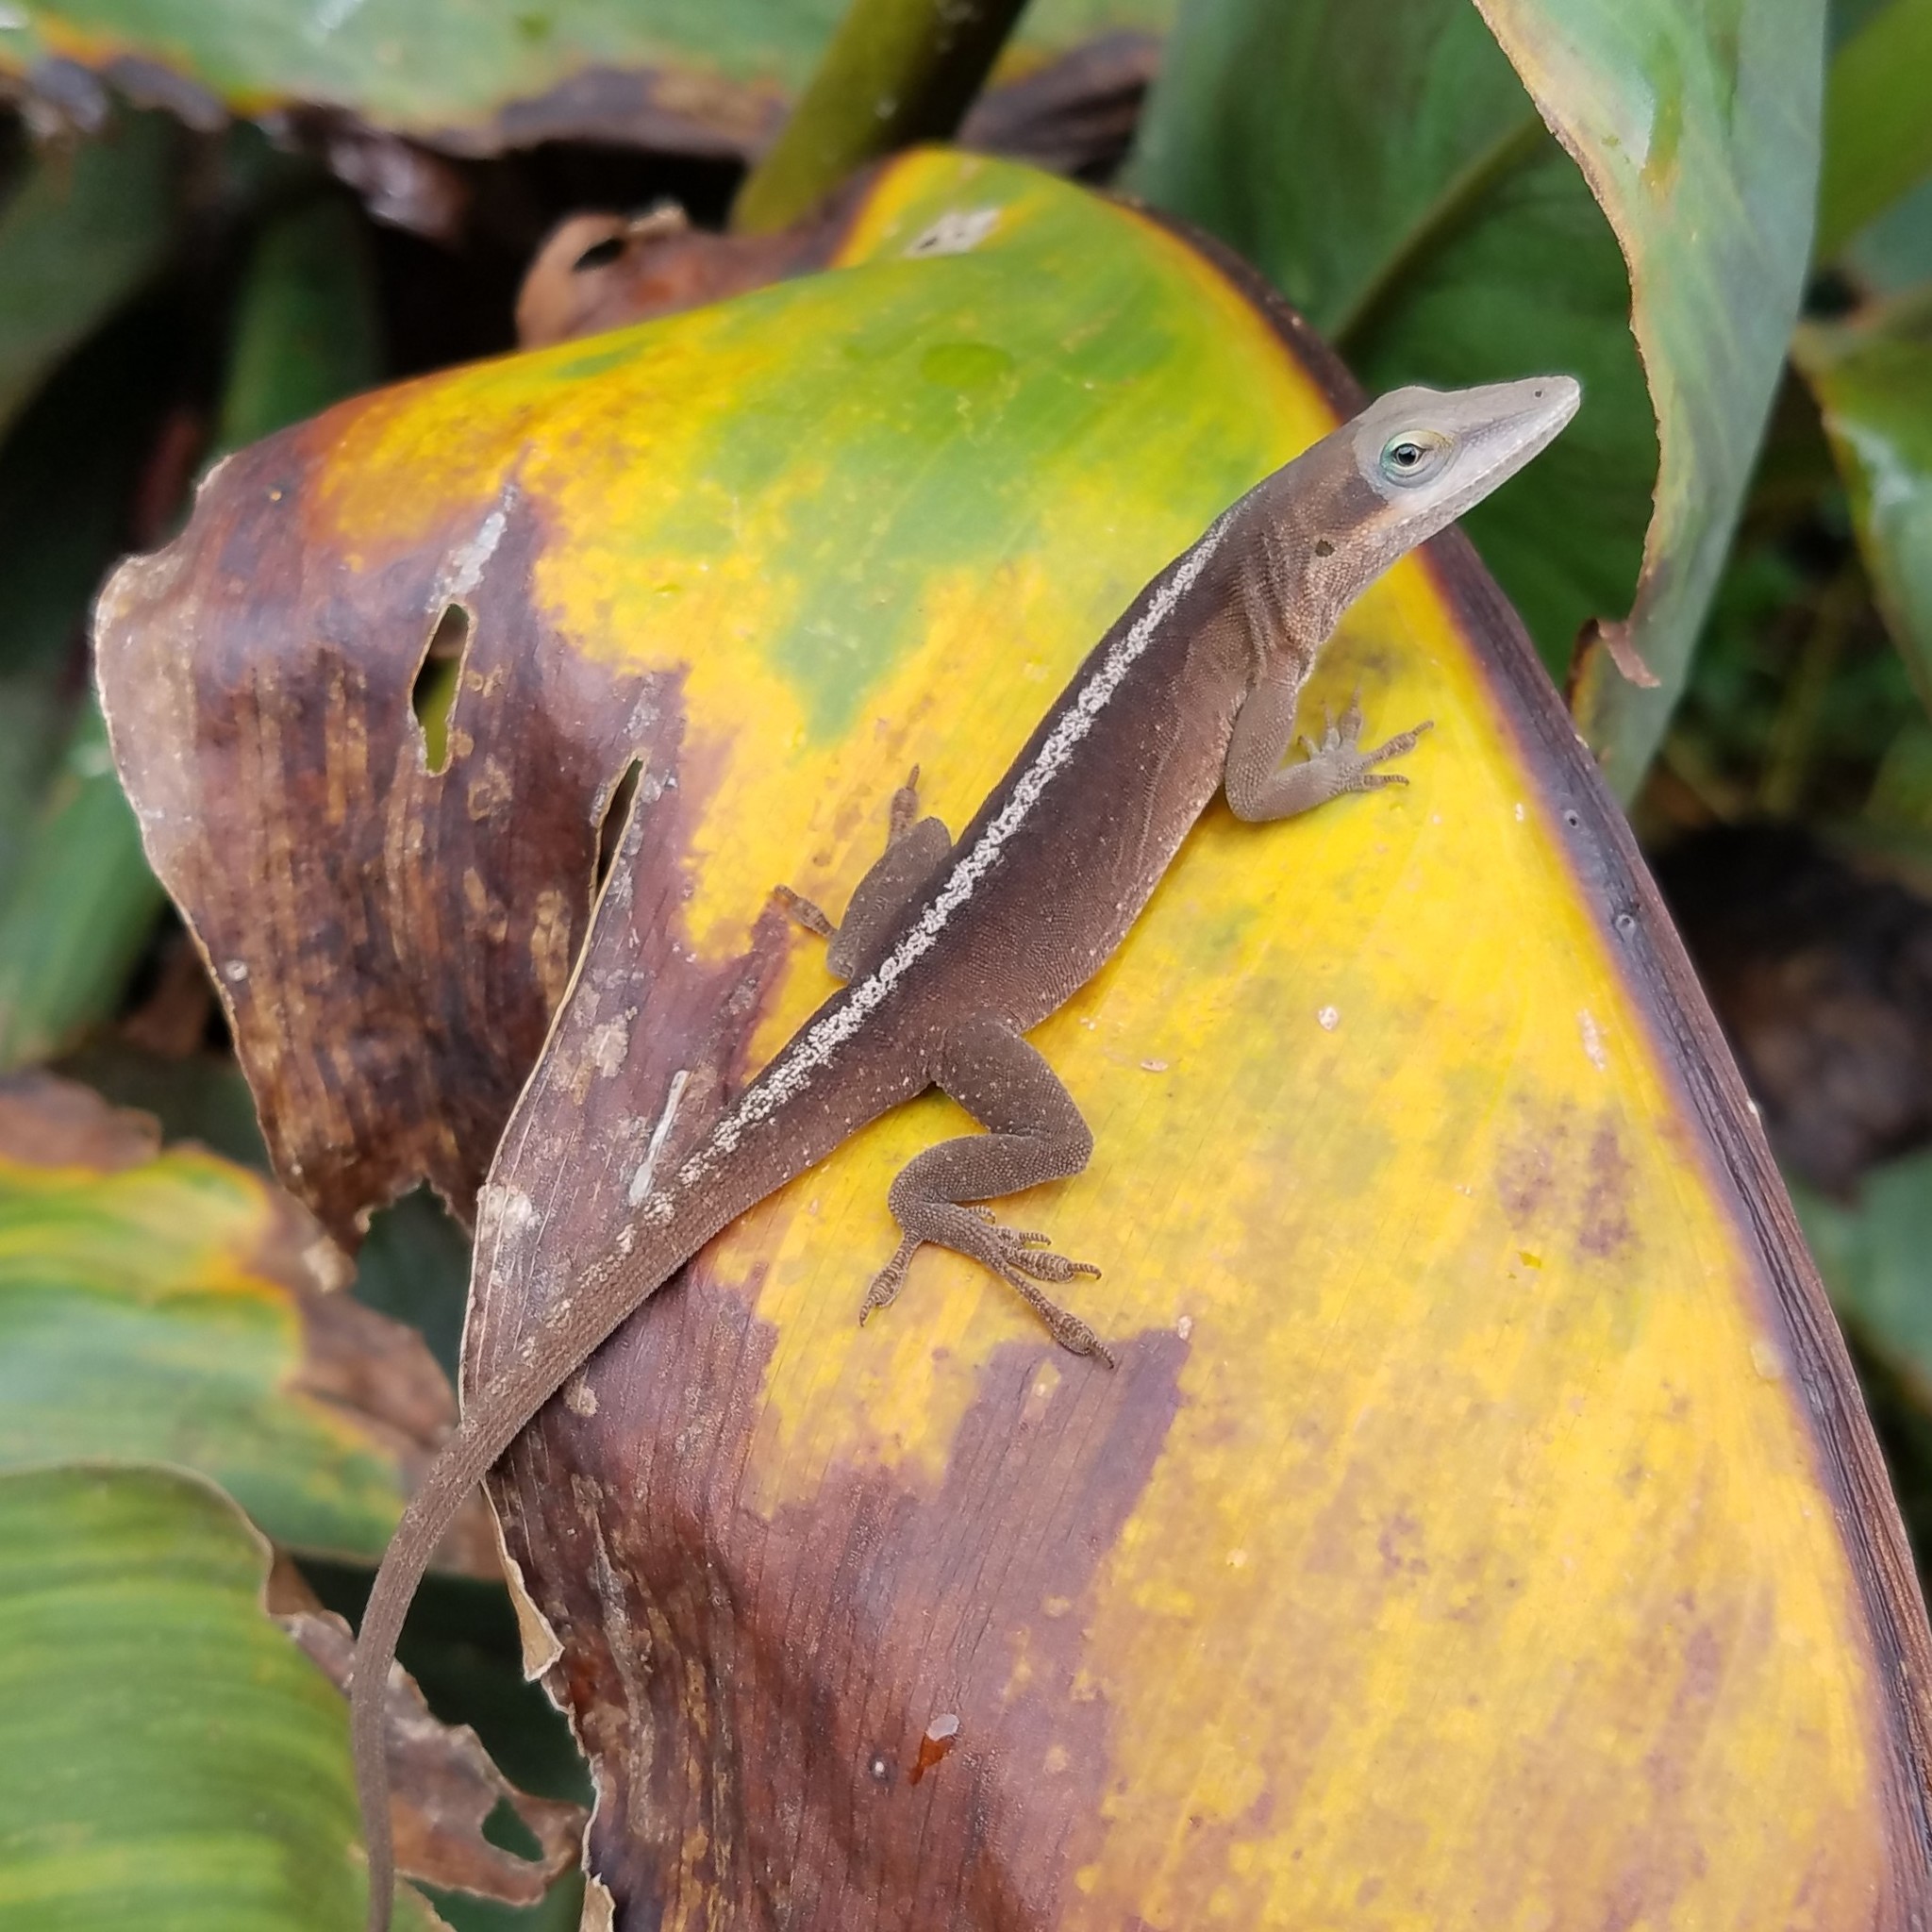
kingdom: Animalia
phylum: Chordata
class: Squamata
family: Dactyloidae
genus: Anolis
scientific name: Anolis carolinensis
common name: Green anole
